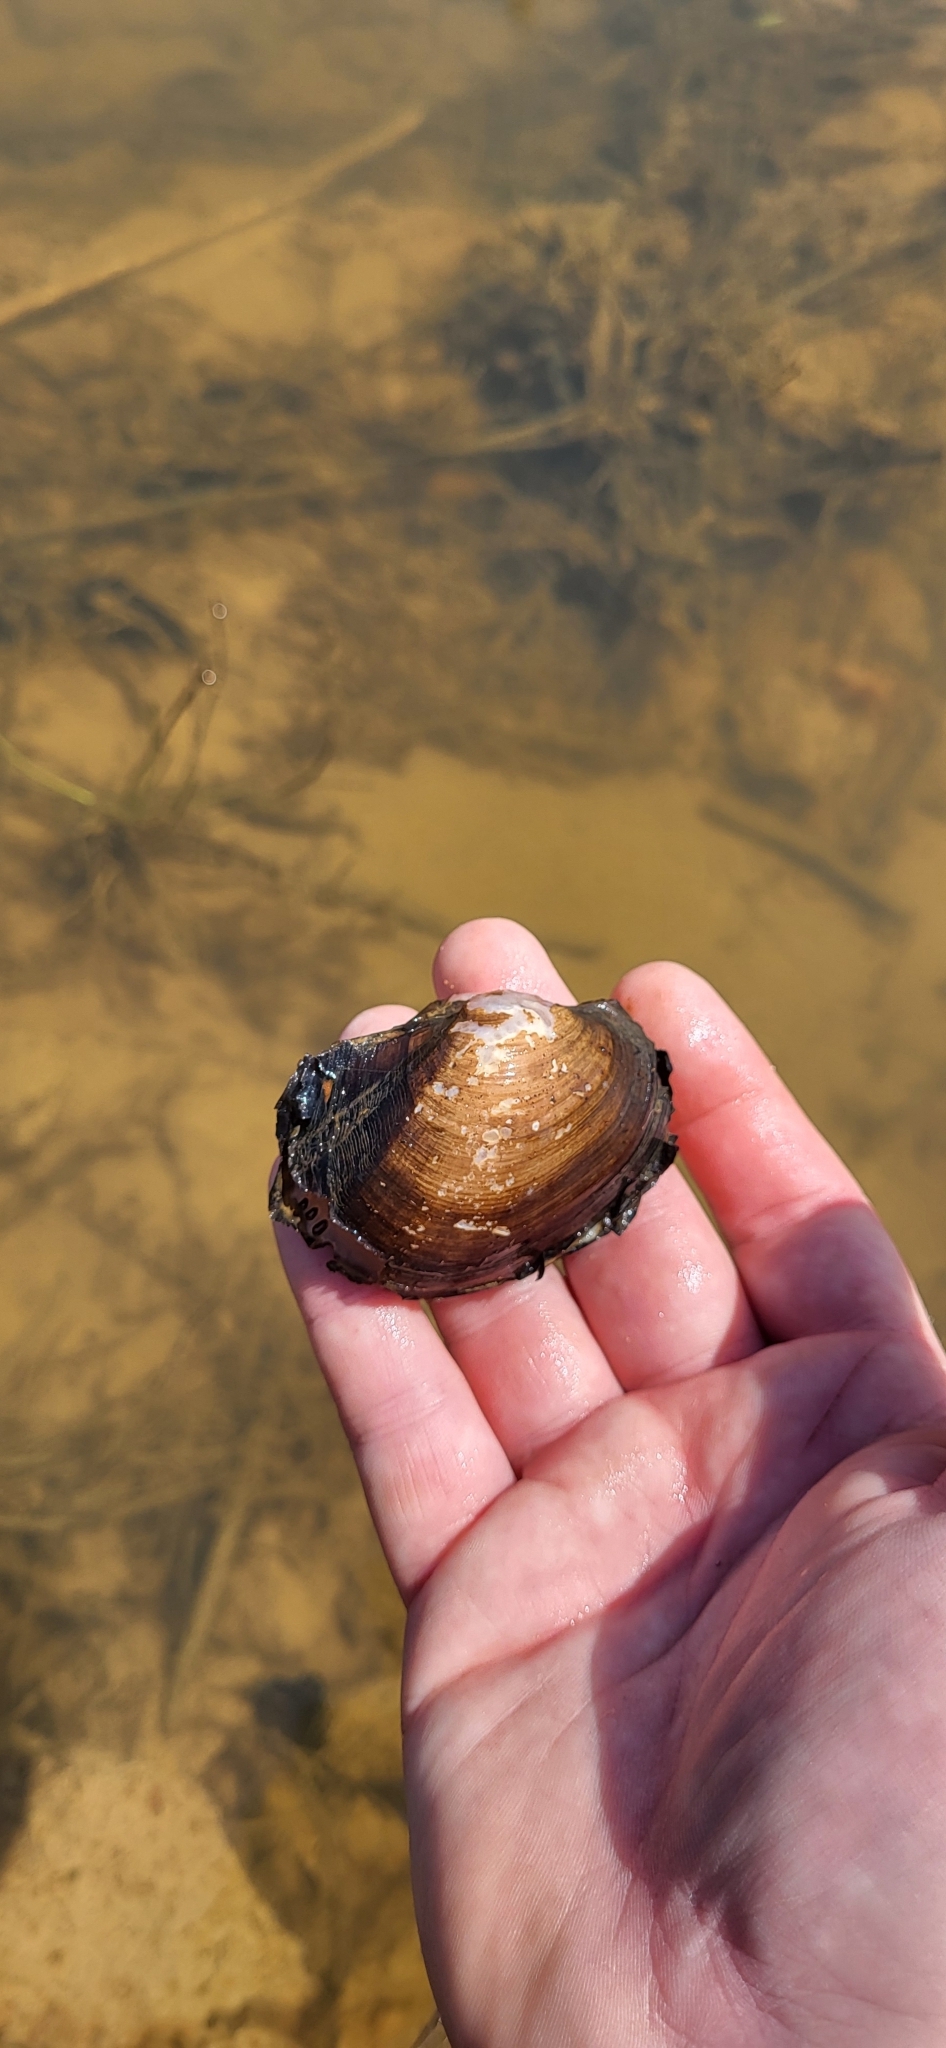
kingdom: Animalia
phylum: Mollusca
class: Bivalvia
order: Unionida
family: Unionidae
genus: Potamilus
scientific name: Potamilus purpuratus
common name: Bleufer
